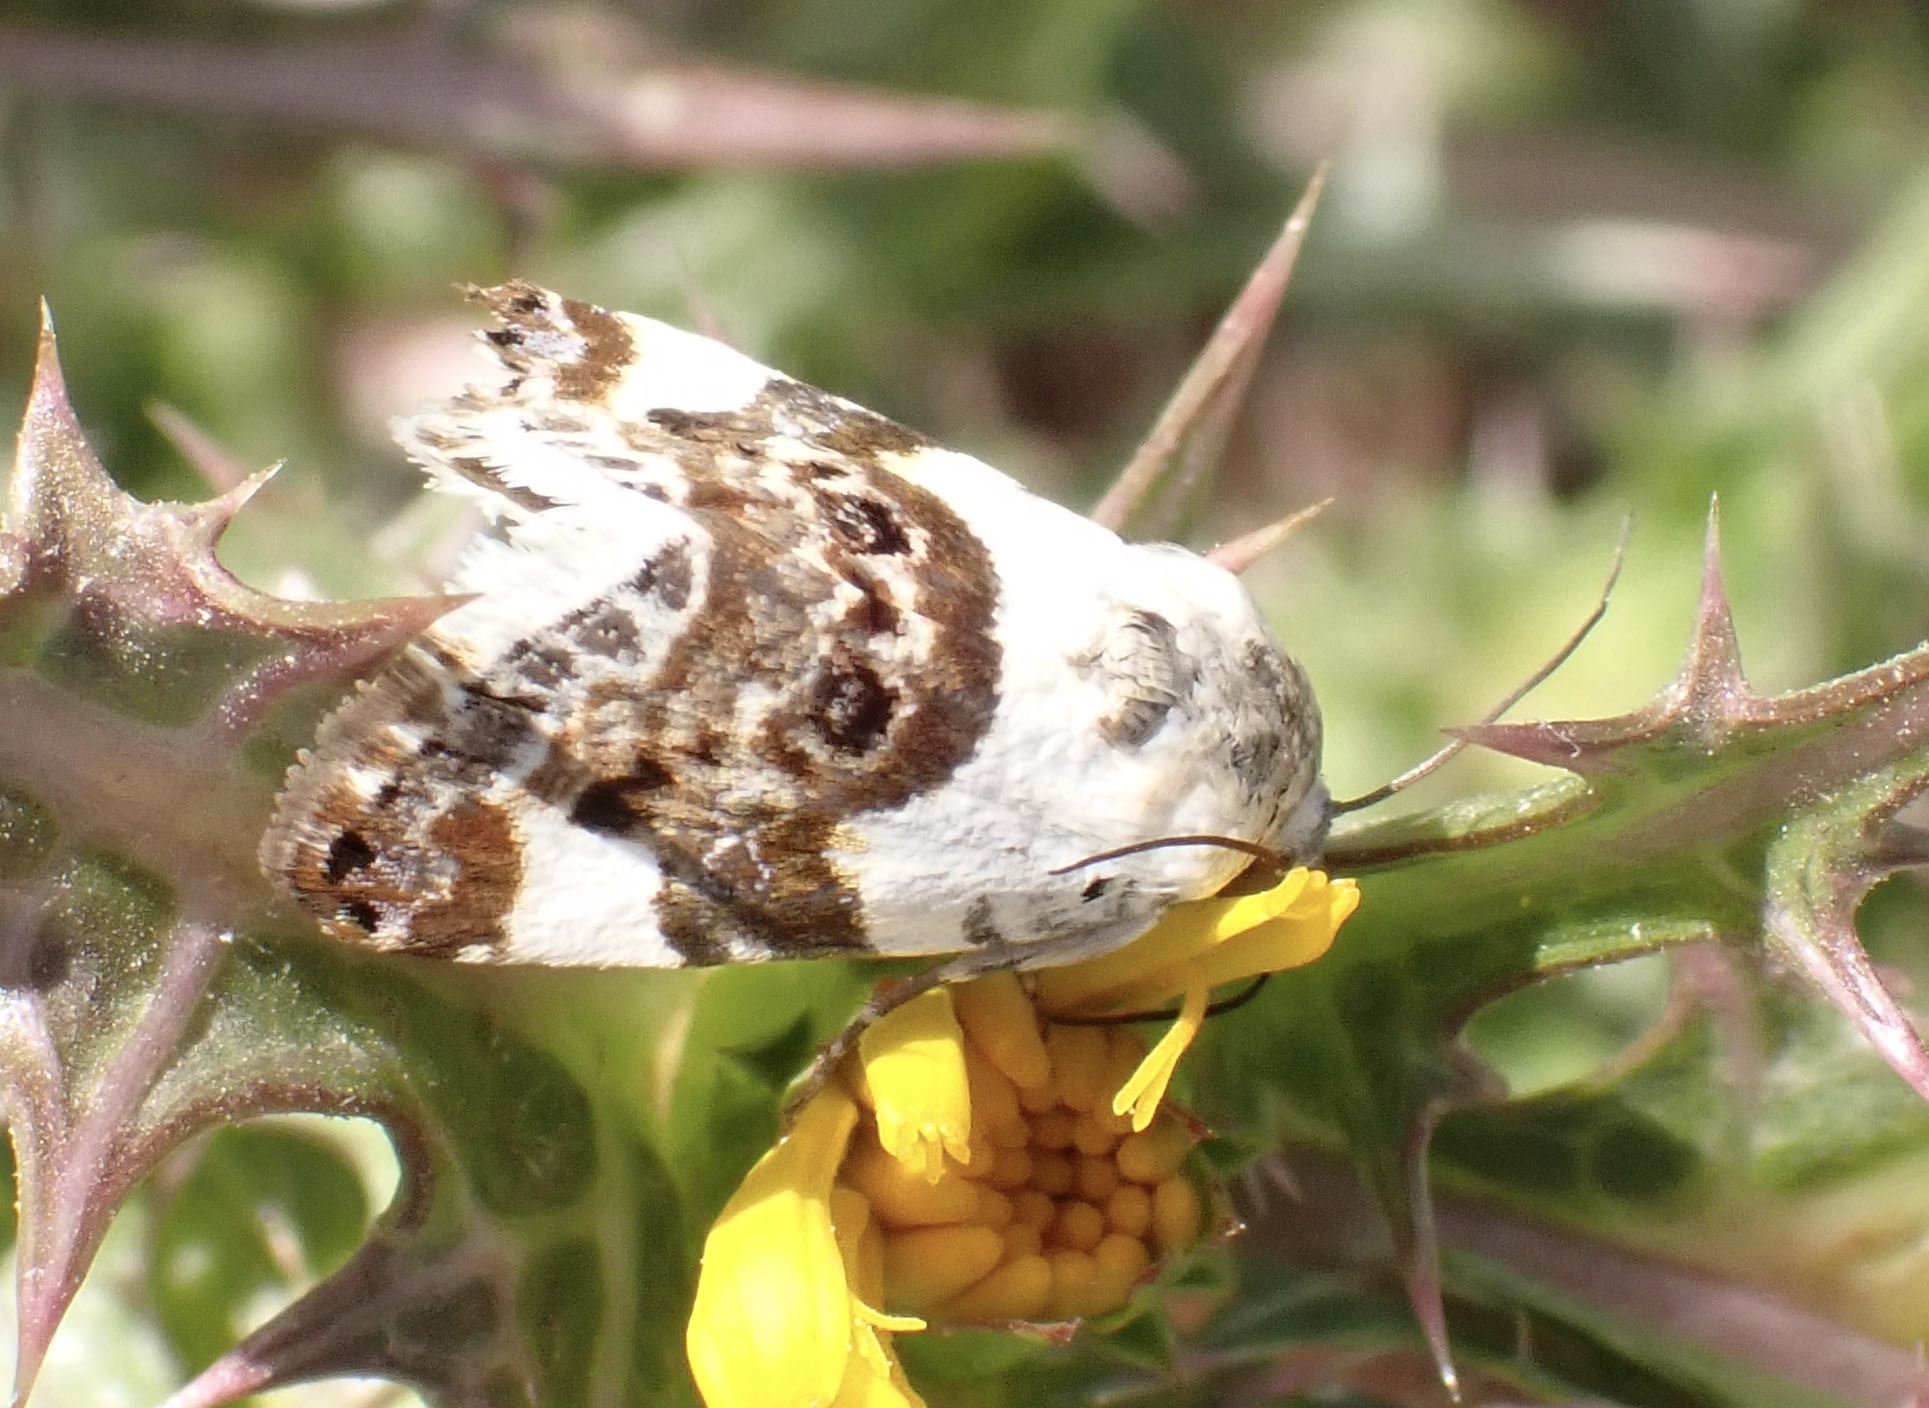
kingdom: Animalia
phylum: Arthropoda
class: Insecta
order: Lepidoptera
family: Noctuidae
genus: Acontia
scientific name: Acontia lucida
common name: Pale shoulder
